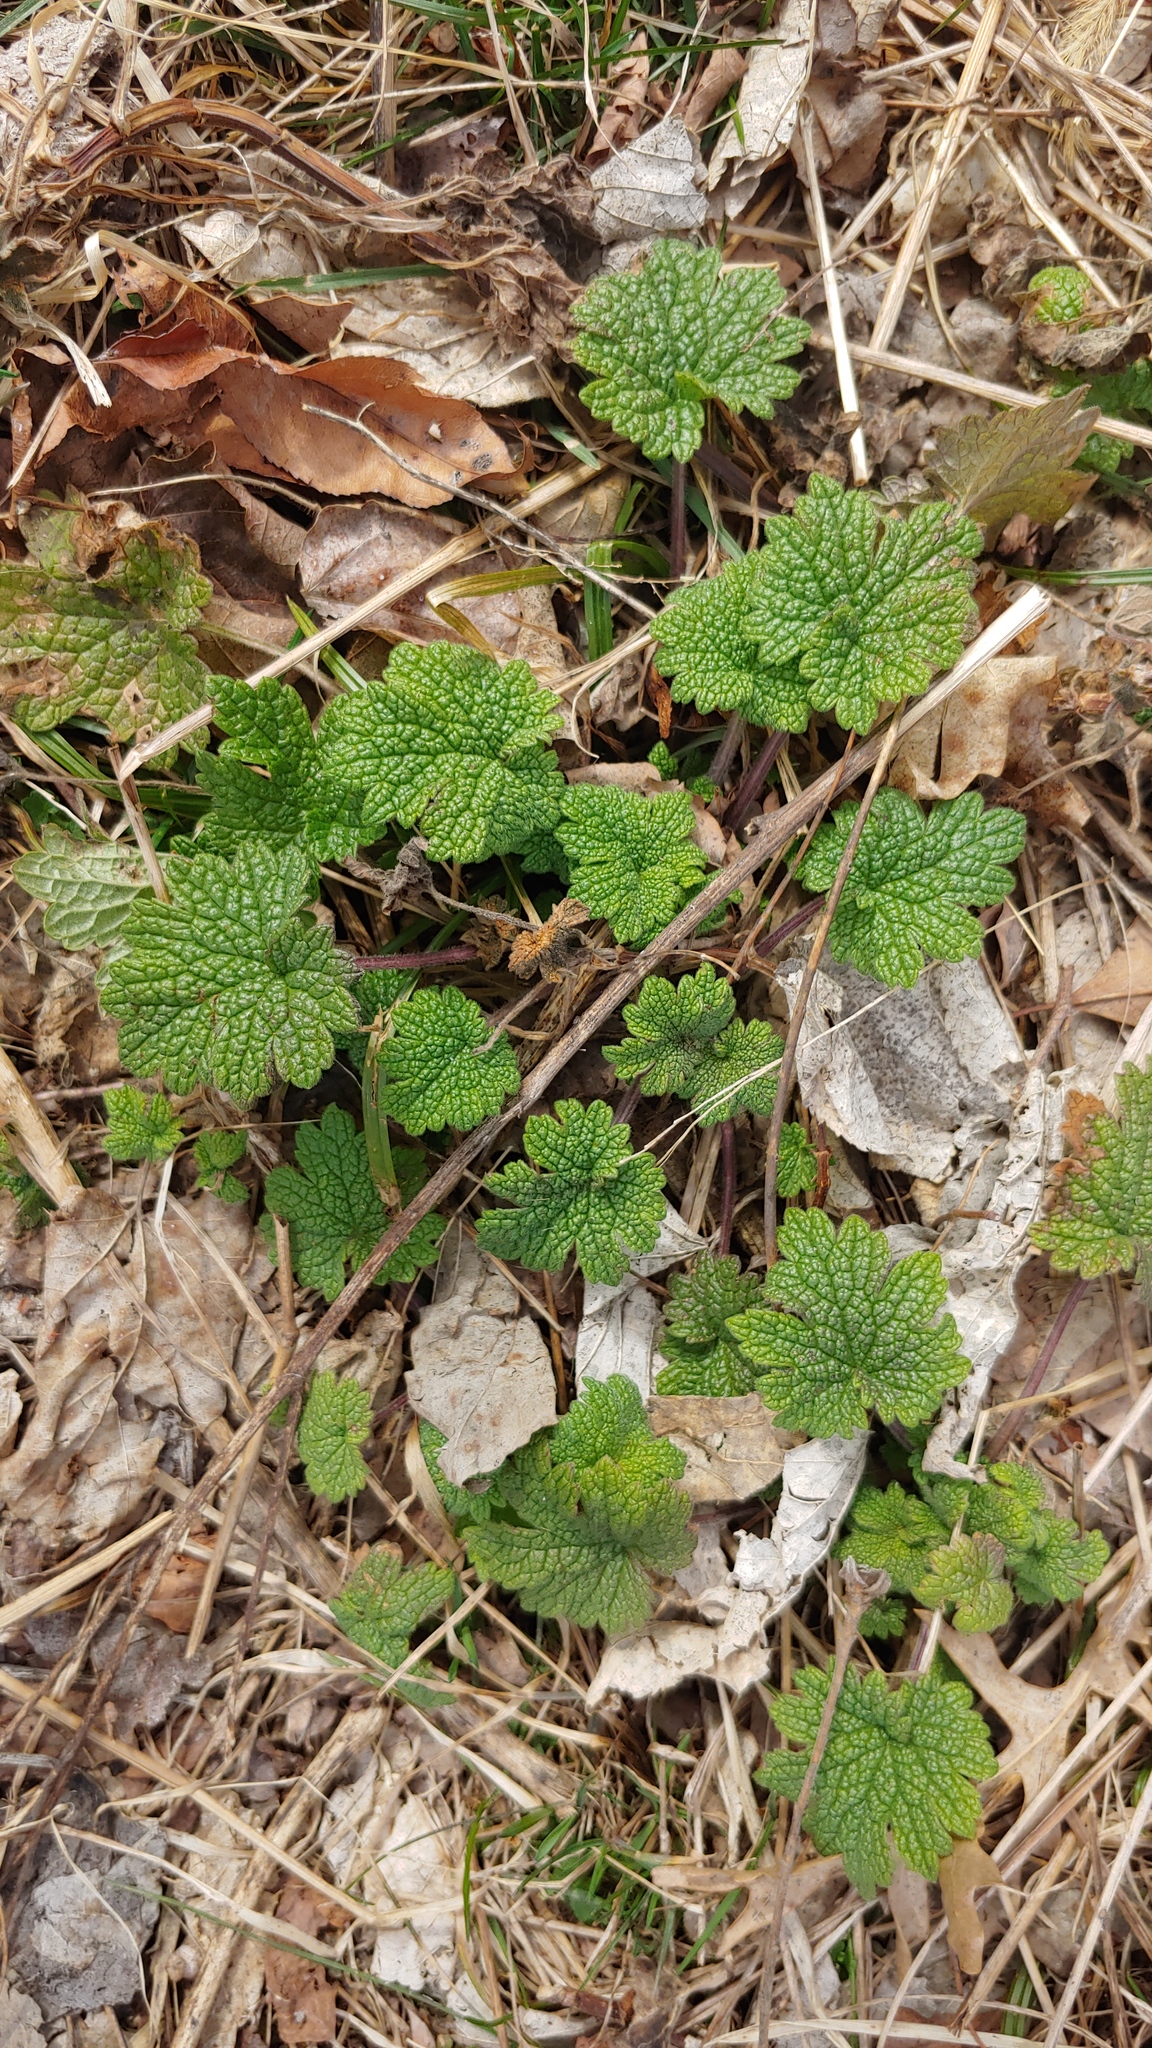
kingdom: Plantae
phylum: Tracheophyta
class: Magnoliopsida
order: Lamiales
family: Lamiaceae
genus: Leonurus
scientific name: Leonurus cardiaca
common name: Motherwort
